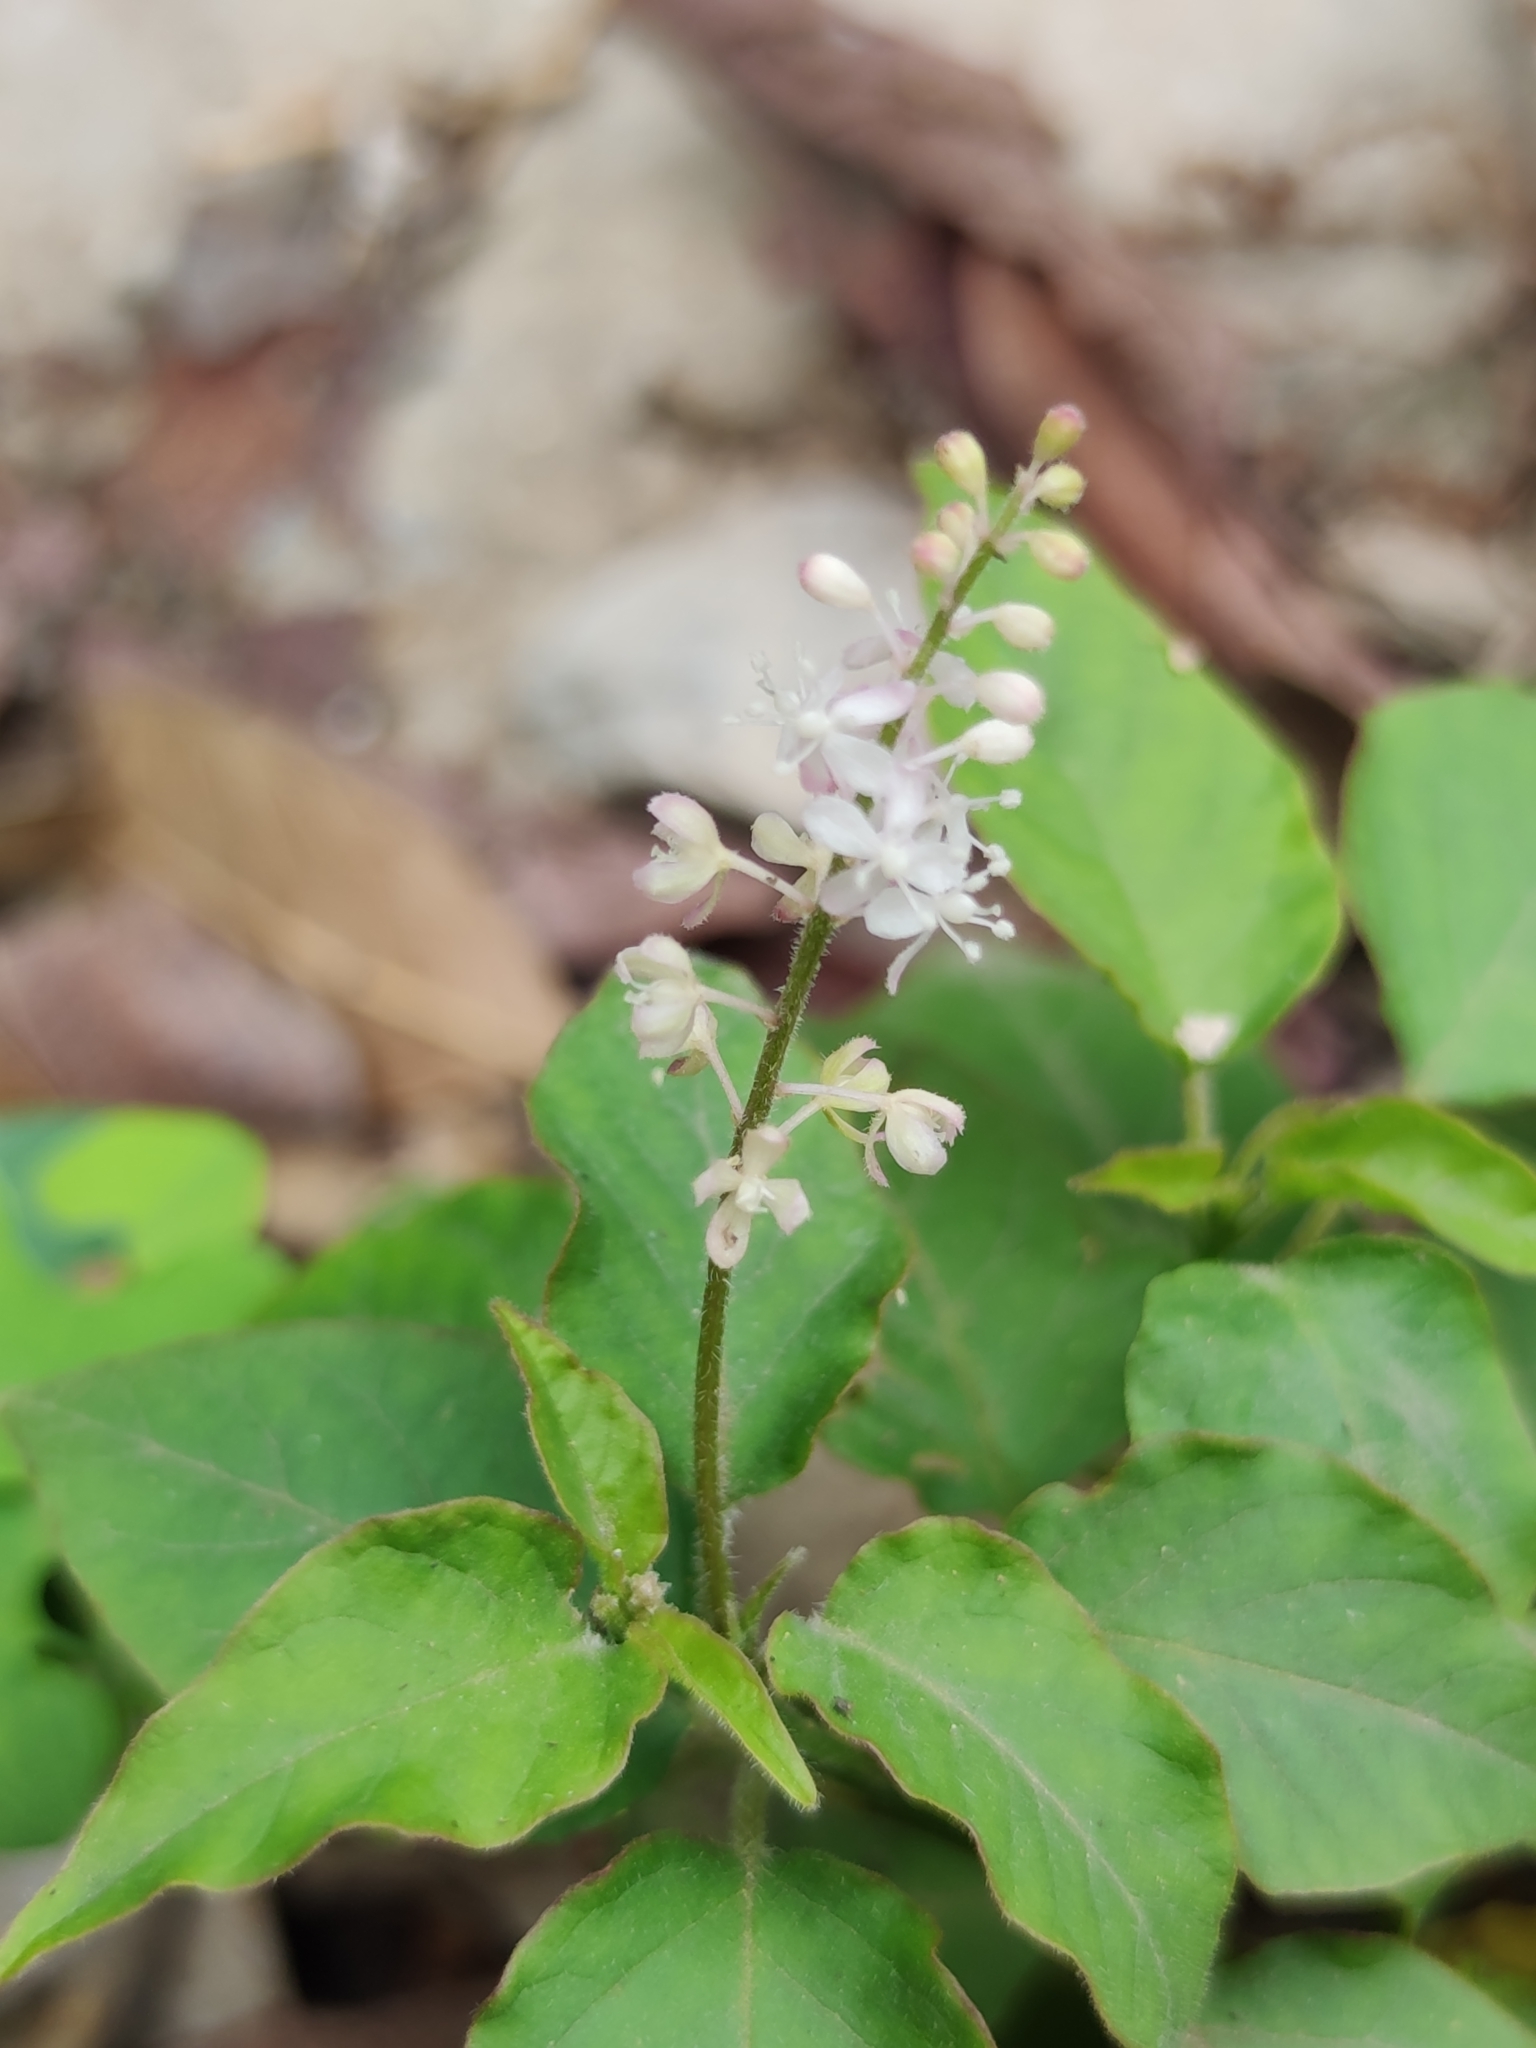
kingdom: Plantae
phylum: Tracheophyta
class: Magnoliopsida
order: Caryophyllales
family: Phytolaccaceae
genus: Rivina
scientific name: Rivina humilis
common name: Rougeplant
